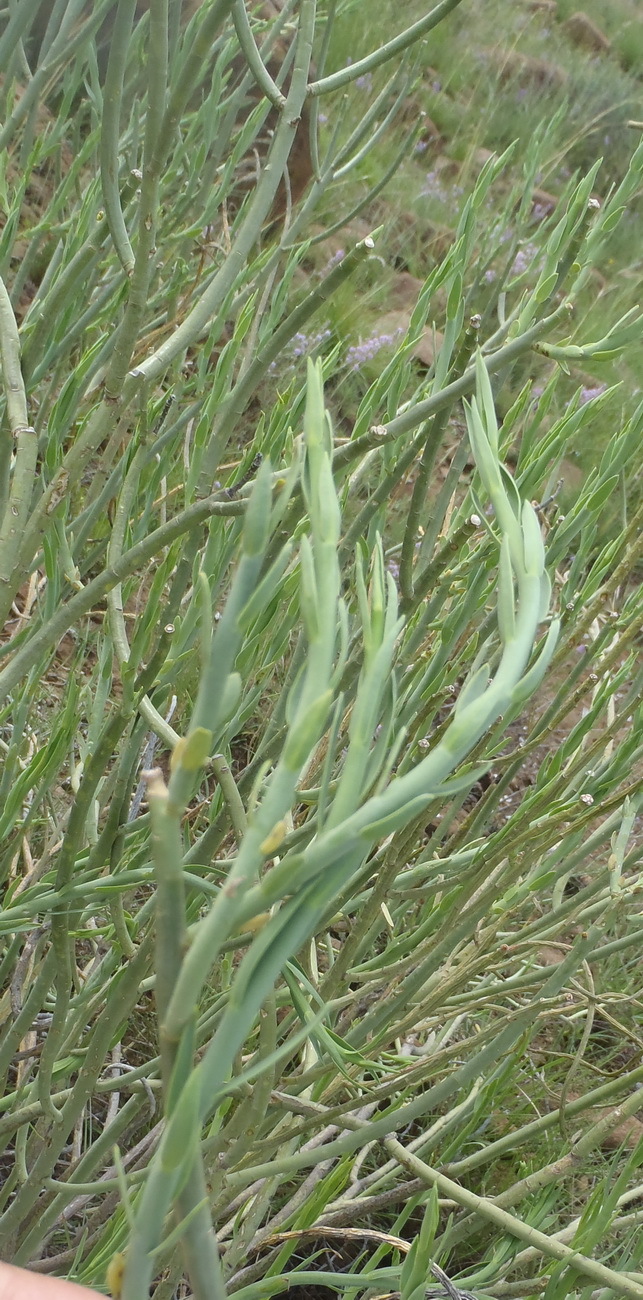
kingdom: Plantae
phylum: Tracheophyta
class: Magnoliopsida
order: Malpighiales
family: Euphorbiaceae
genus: Euphorbia
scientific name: Euphorbia mauritanica
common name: Jackal's-food
